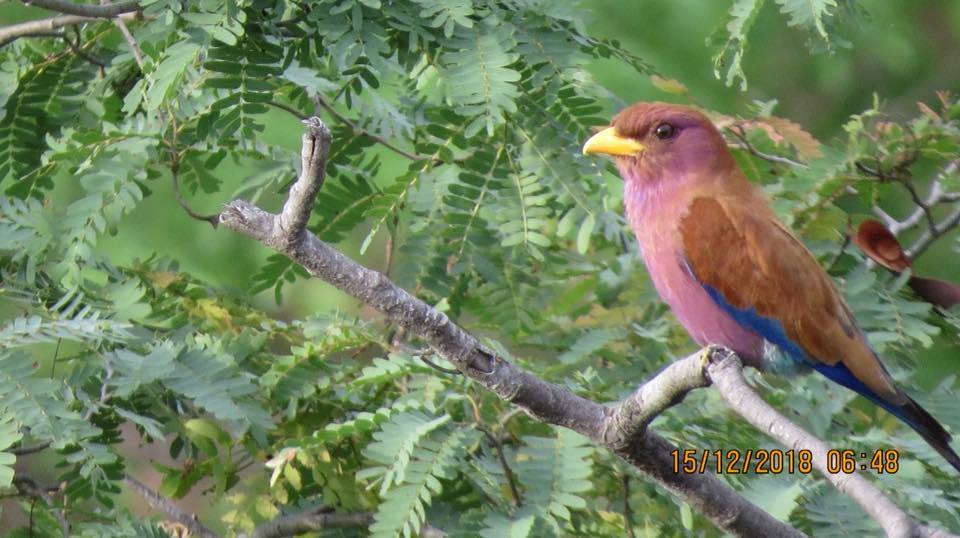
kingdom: Animalia
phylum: Chordata
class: Aves
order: Coraciiformes
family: Coraciidae
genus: Eurystomus
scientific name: Eurystomus glaucurus
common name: Broad-billed roller
